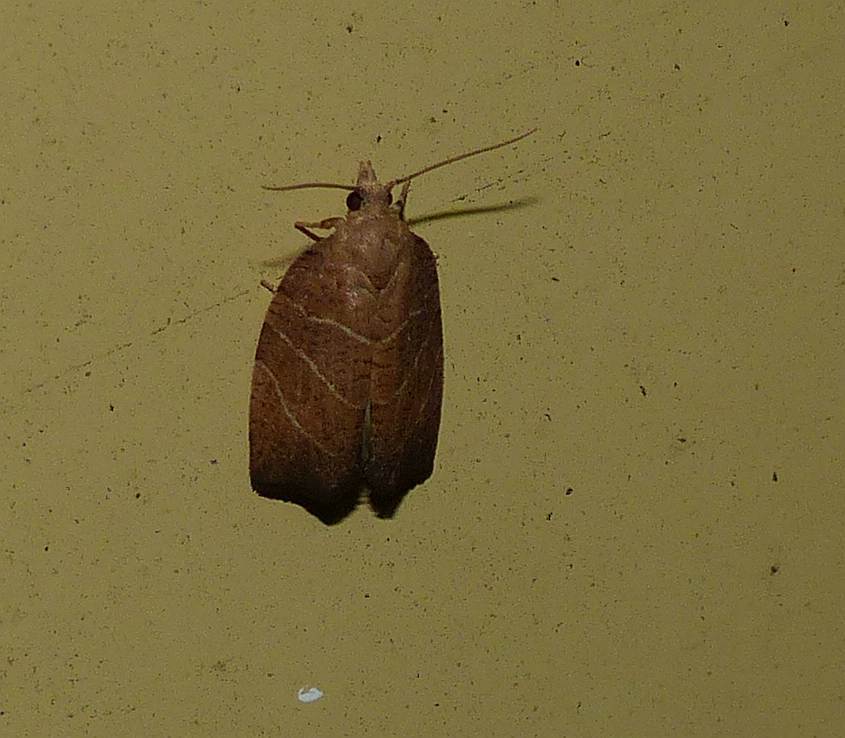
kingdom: Animalia
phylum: Arthropoda
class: Insecta
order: Lepidoptera
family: Tortricidae
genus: Pandemis
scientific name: Pandemis limitata
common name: Three-lined leafroller moth
